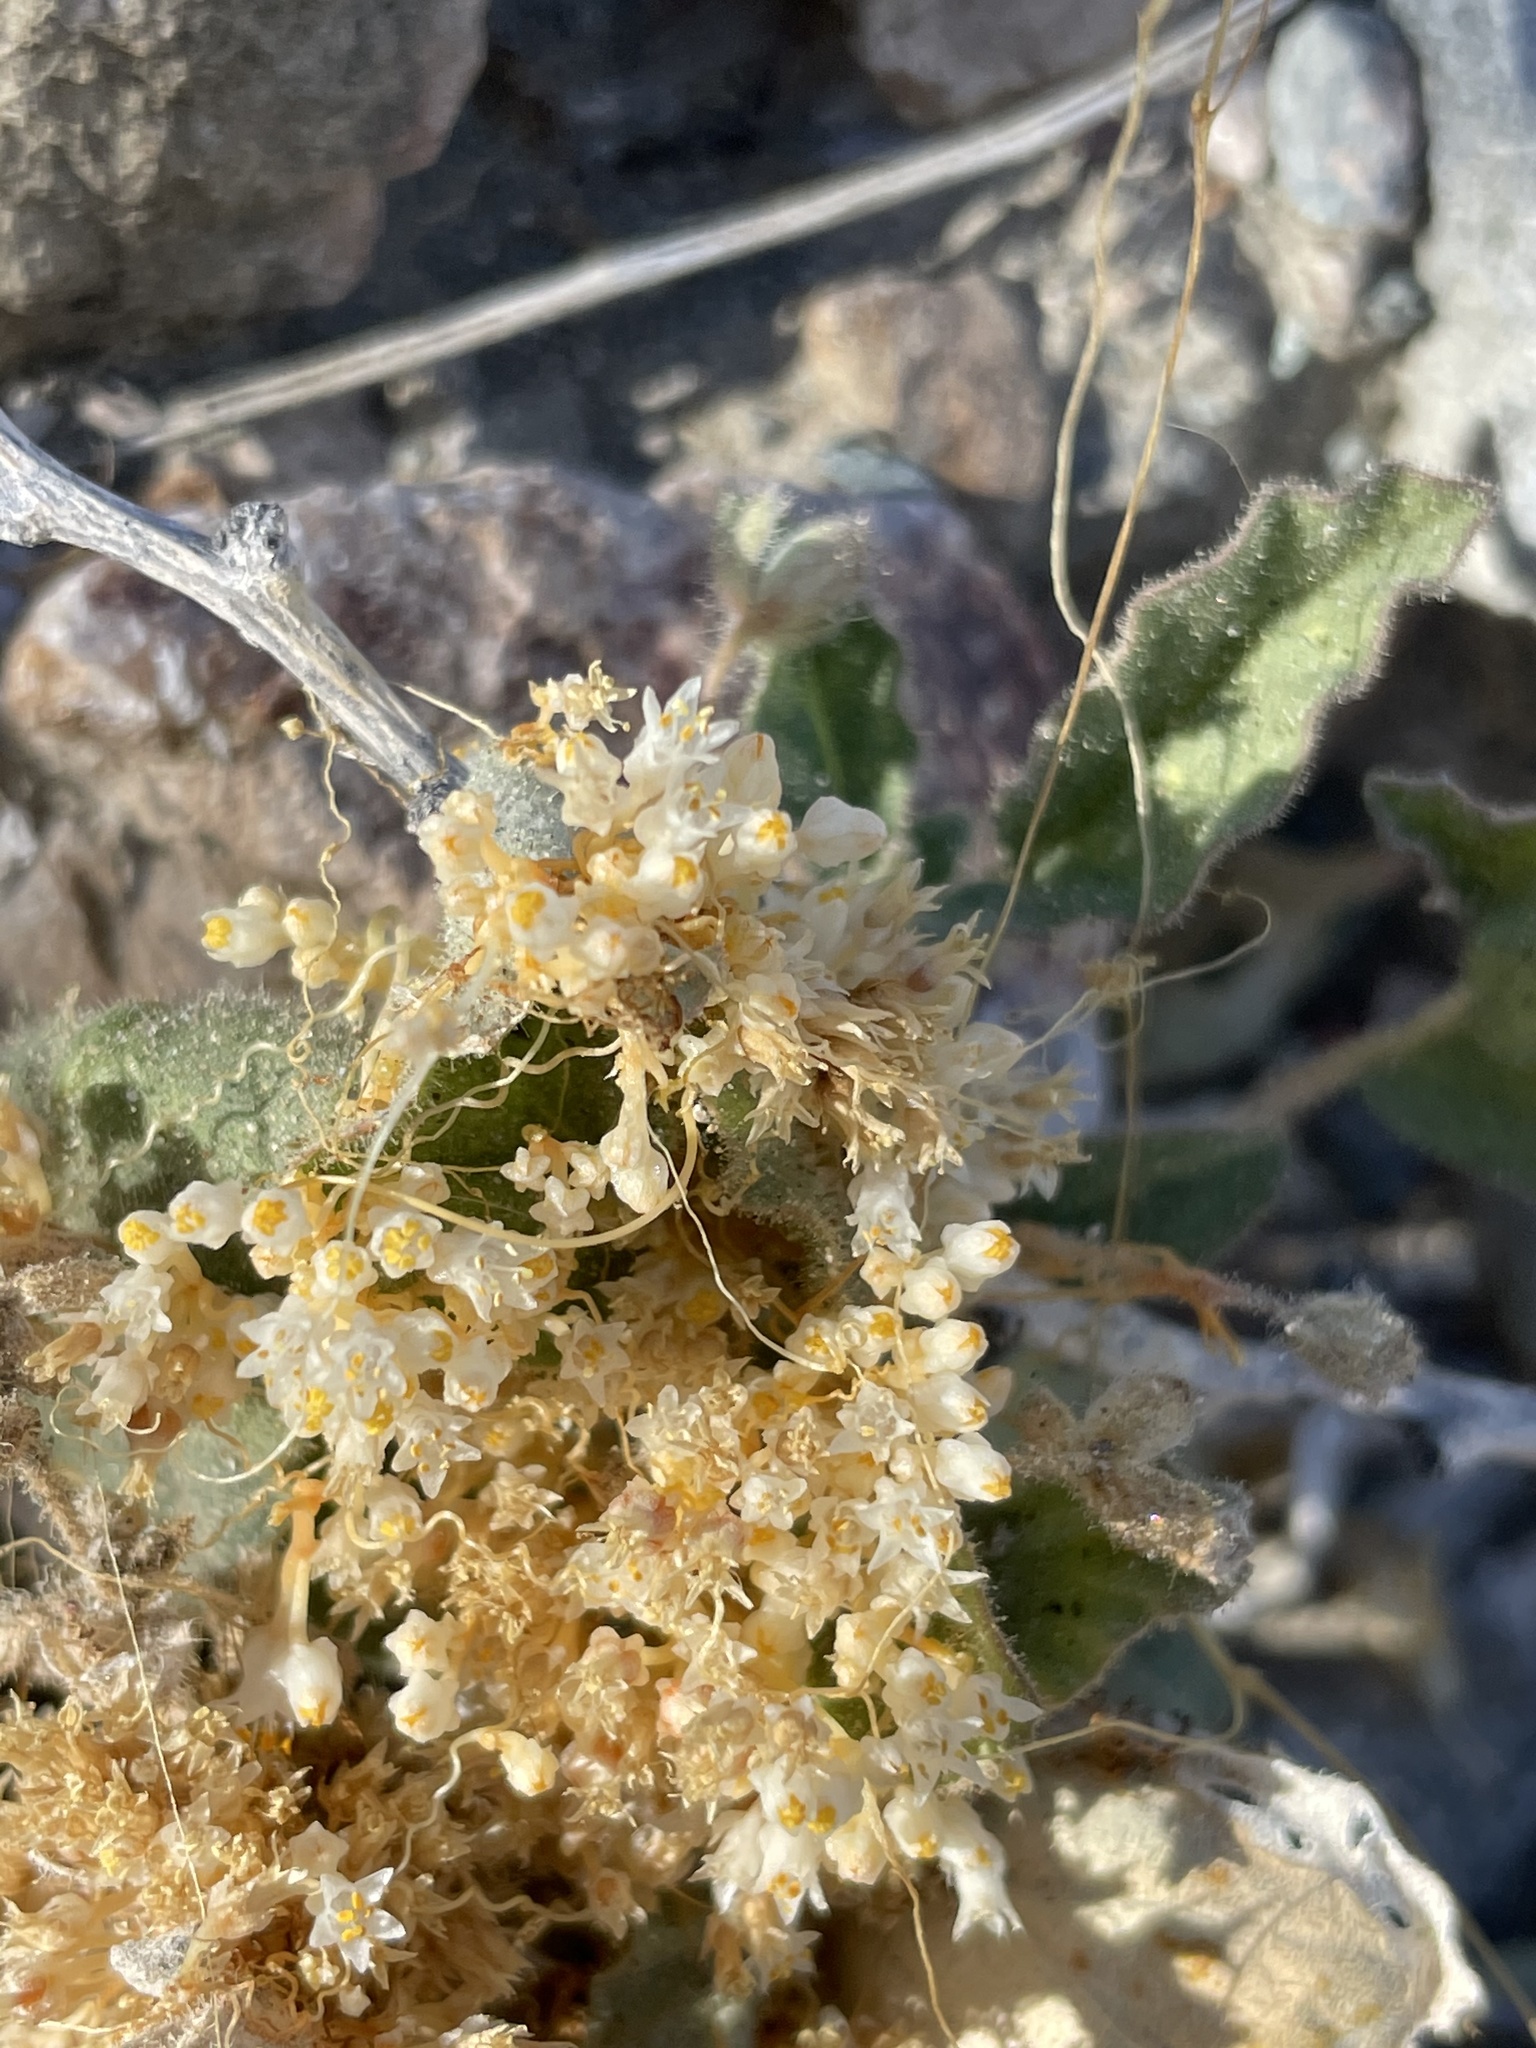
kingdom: Plantae
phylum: Tracheophyta
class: Magnoliopsida
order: Solanales
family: Convolvulaceae
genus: Cuscuta
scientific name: Cuscuta tuberculata
